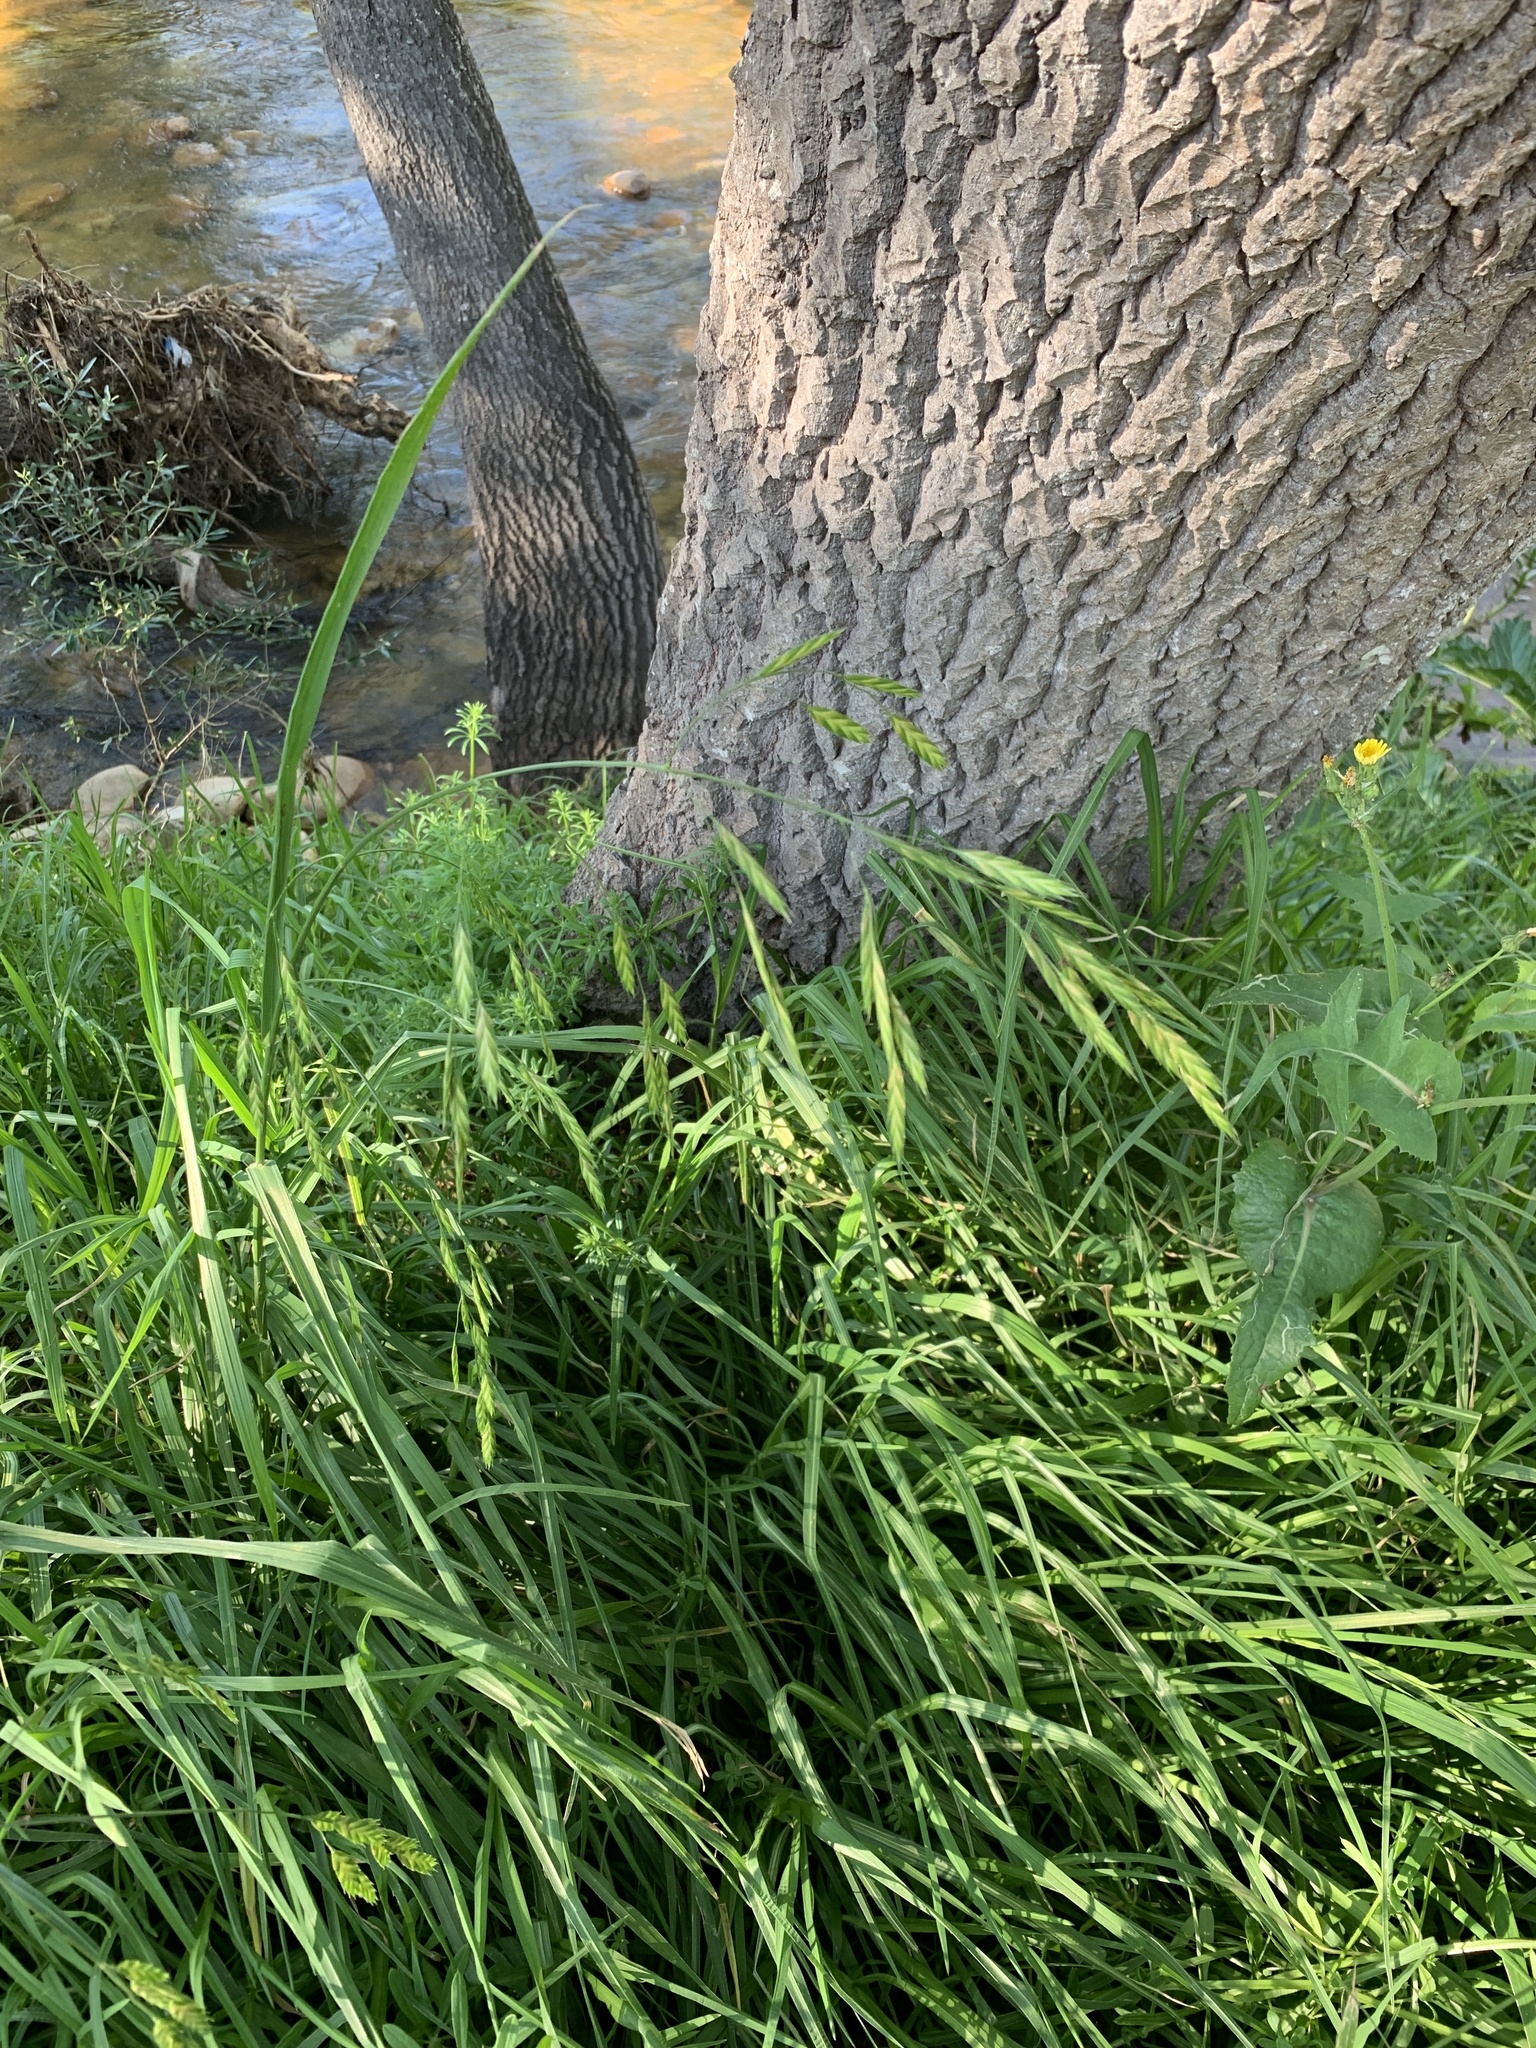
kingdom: Plantae
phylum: Tracheophyta
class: Liliopsida
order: Poales
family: Poaceae
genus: Bromus
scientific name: Bromus catharticus
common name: Rescuegrass
